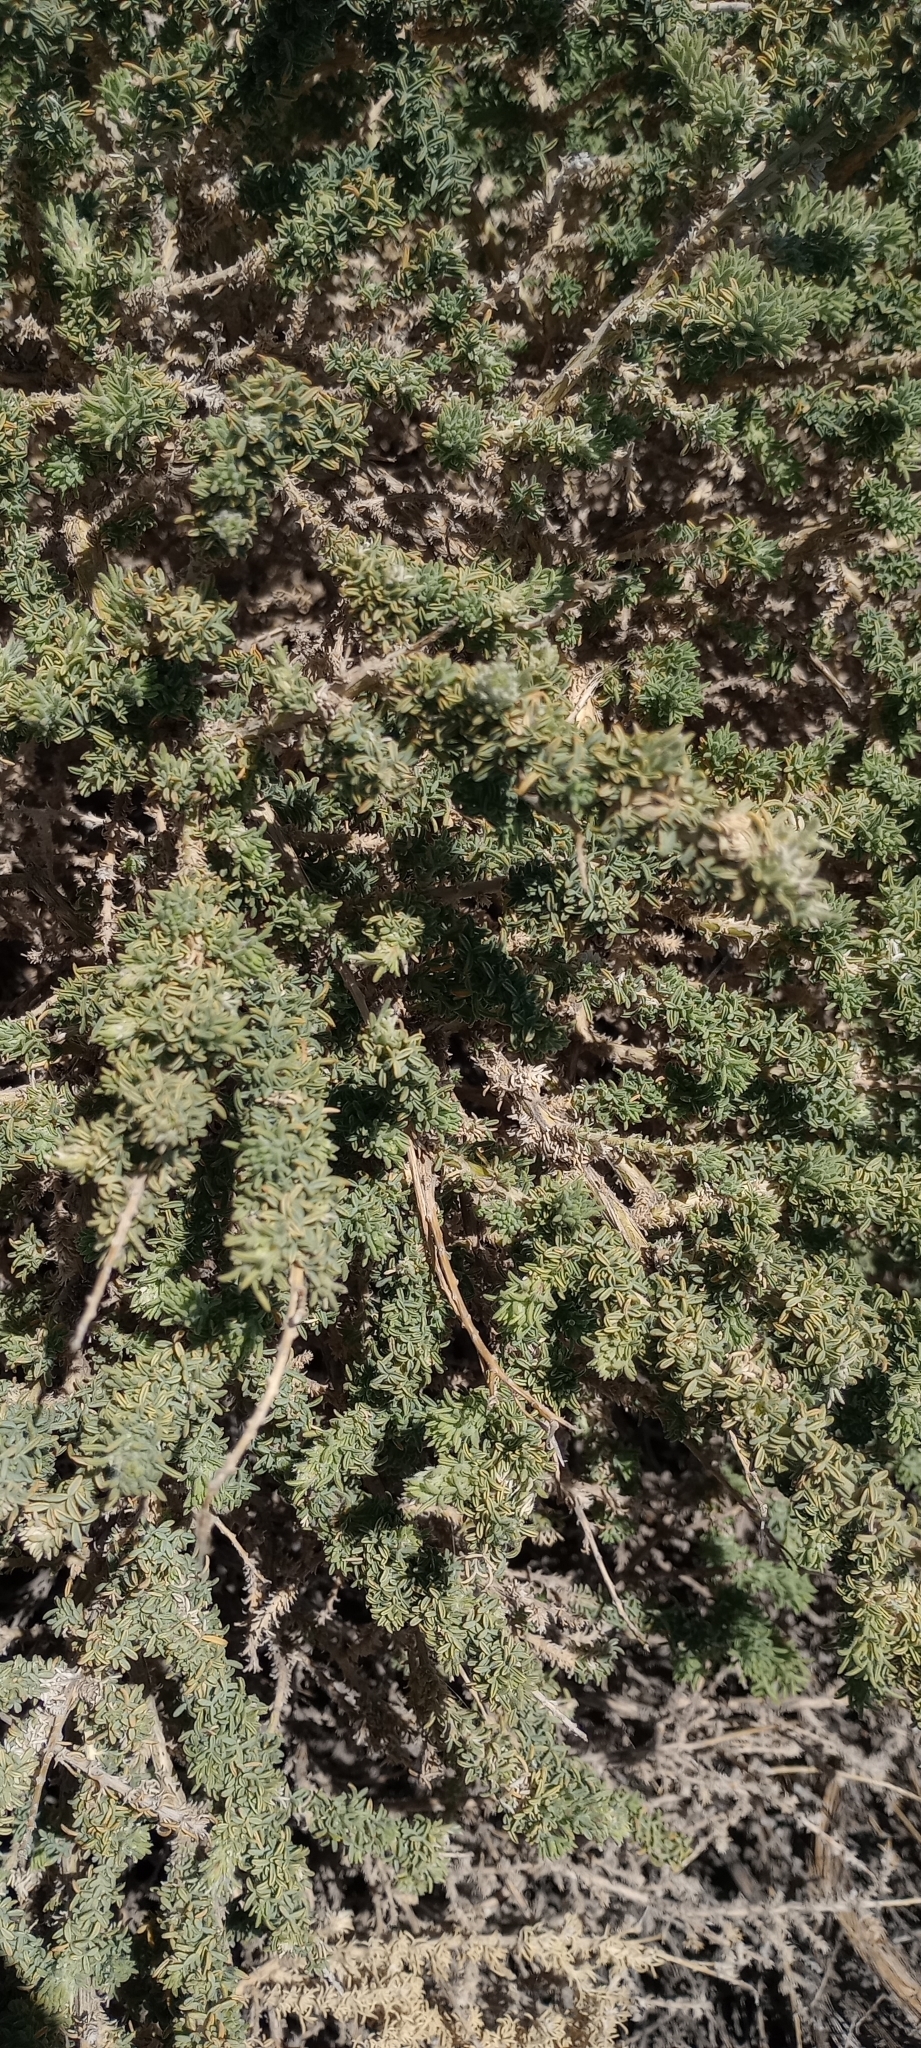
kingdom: Plantae
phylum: Tracheophyta
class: Magnoliopsida
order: Fabales
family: Fabaceae
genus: Adenocarpus
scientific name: Adenocarpus viscosus
